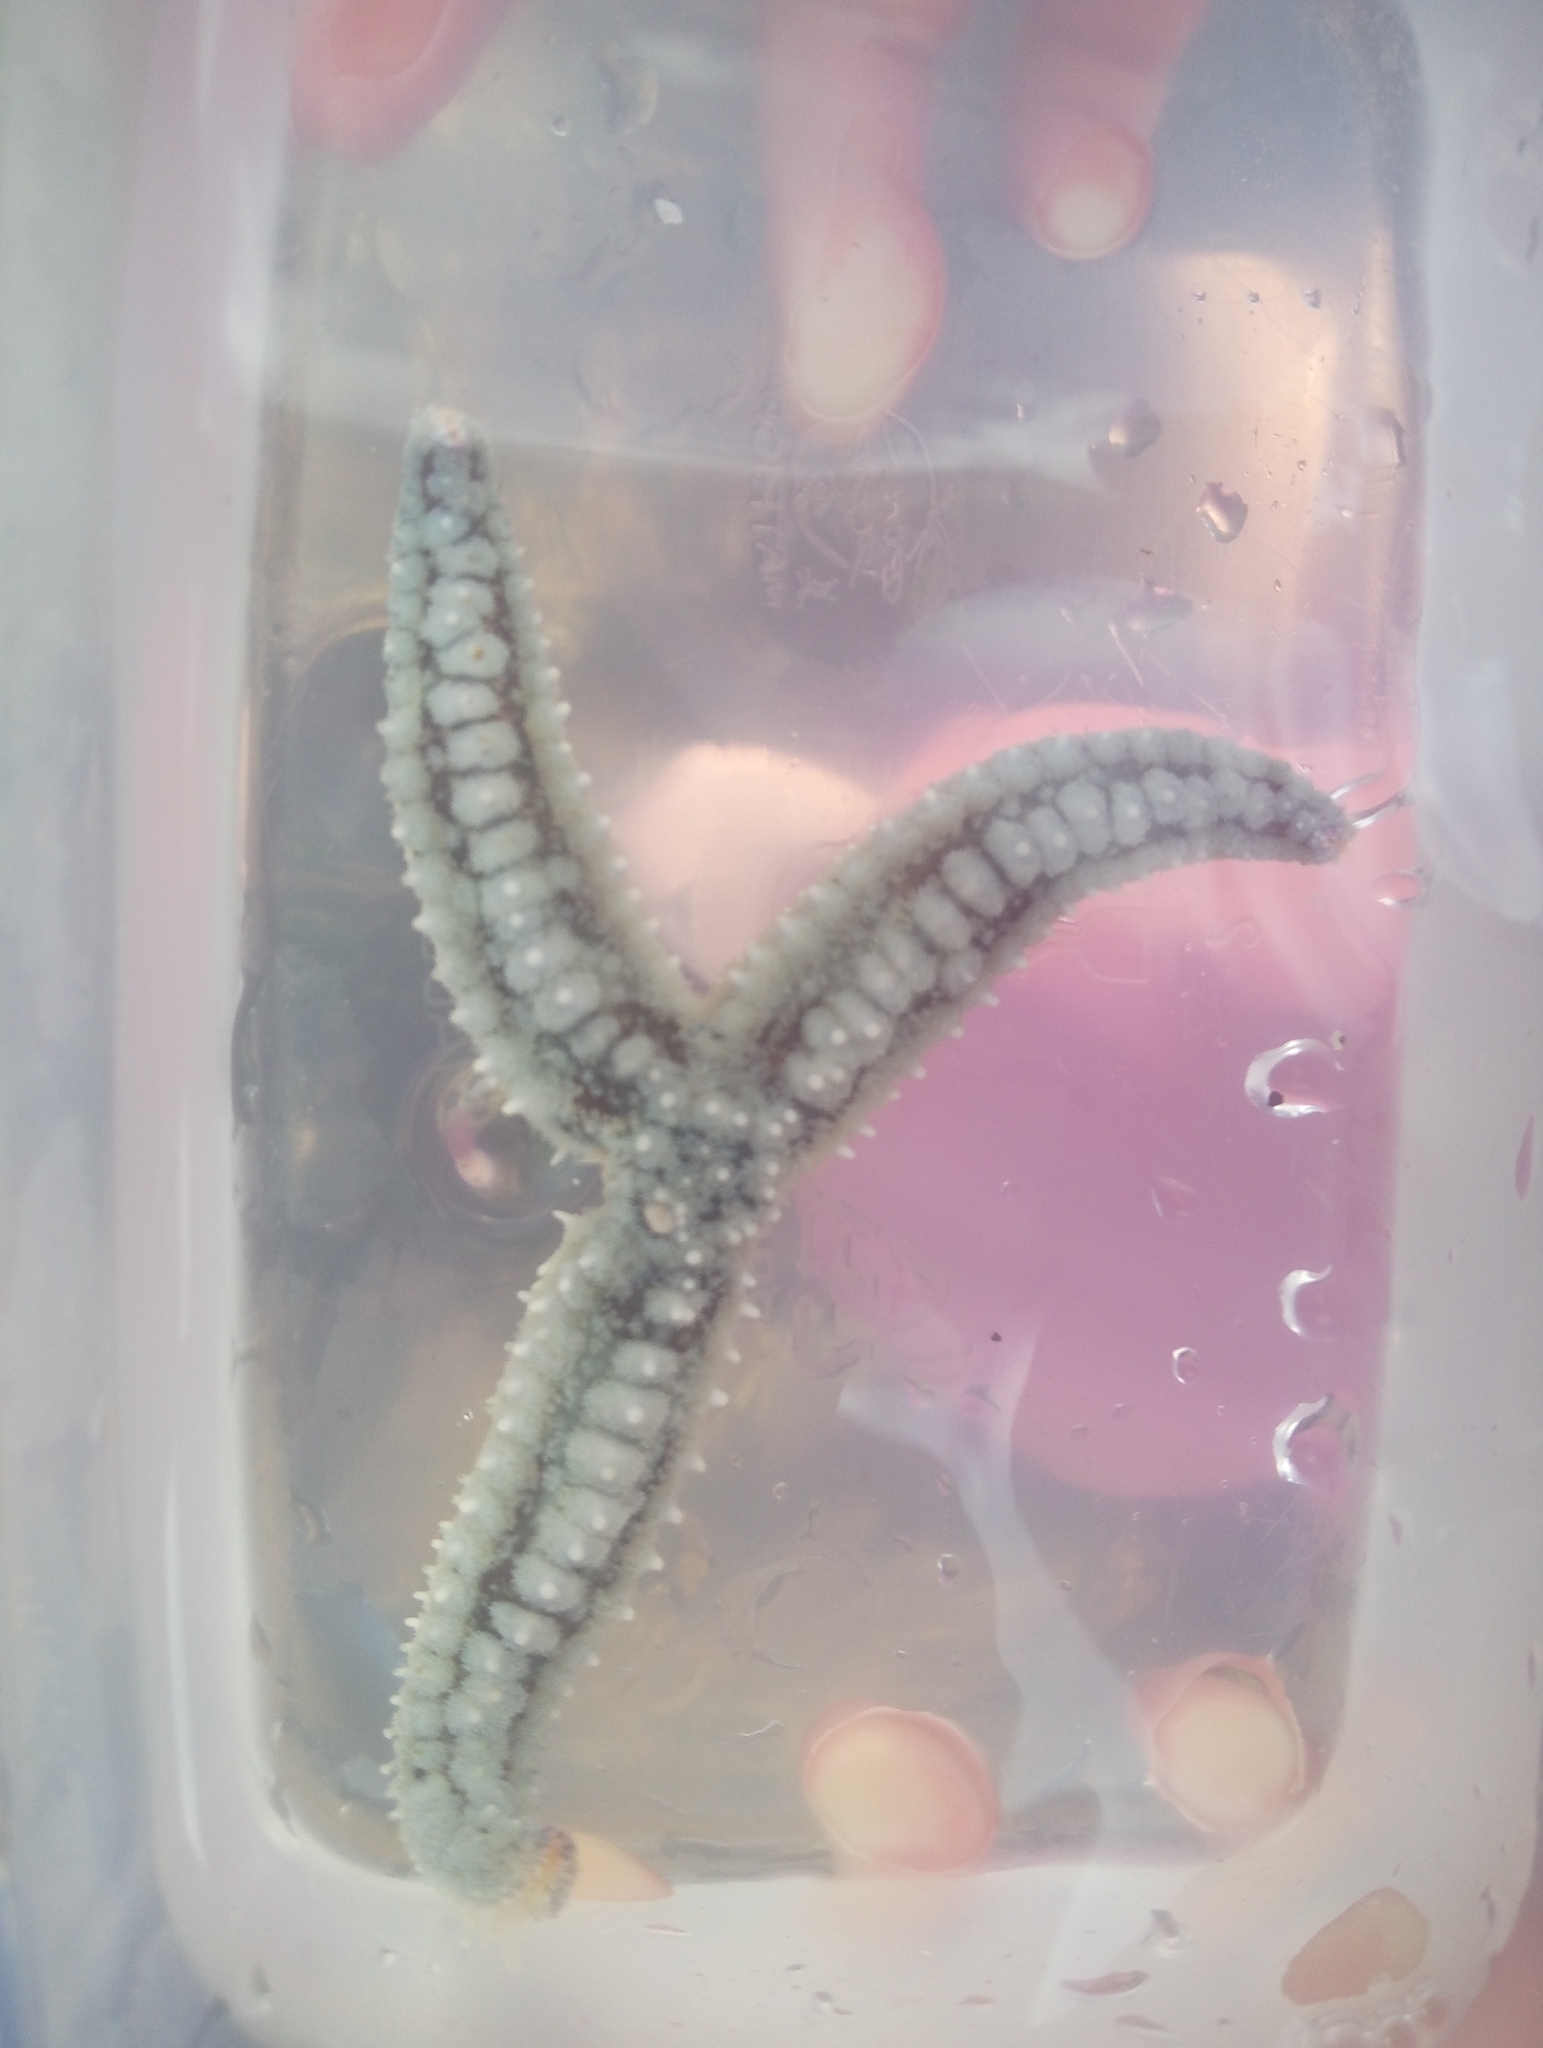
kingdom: Animalia
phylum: Echinodermata
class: Asteroidea
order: Forcipulatida
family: Asteriidae
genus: Marthasterias
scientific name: Marthasterias glacialis
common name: Spiny starfish
